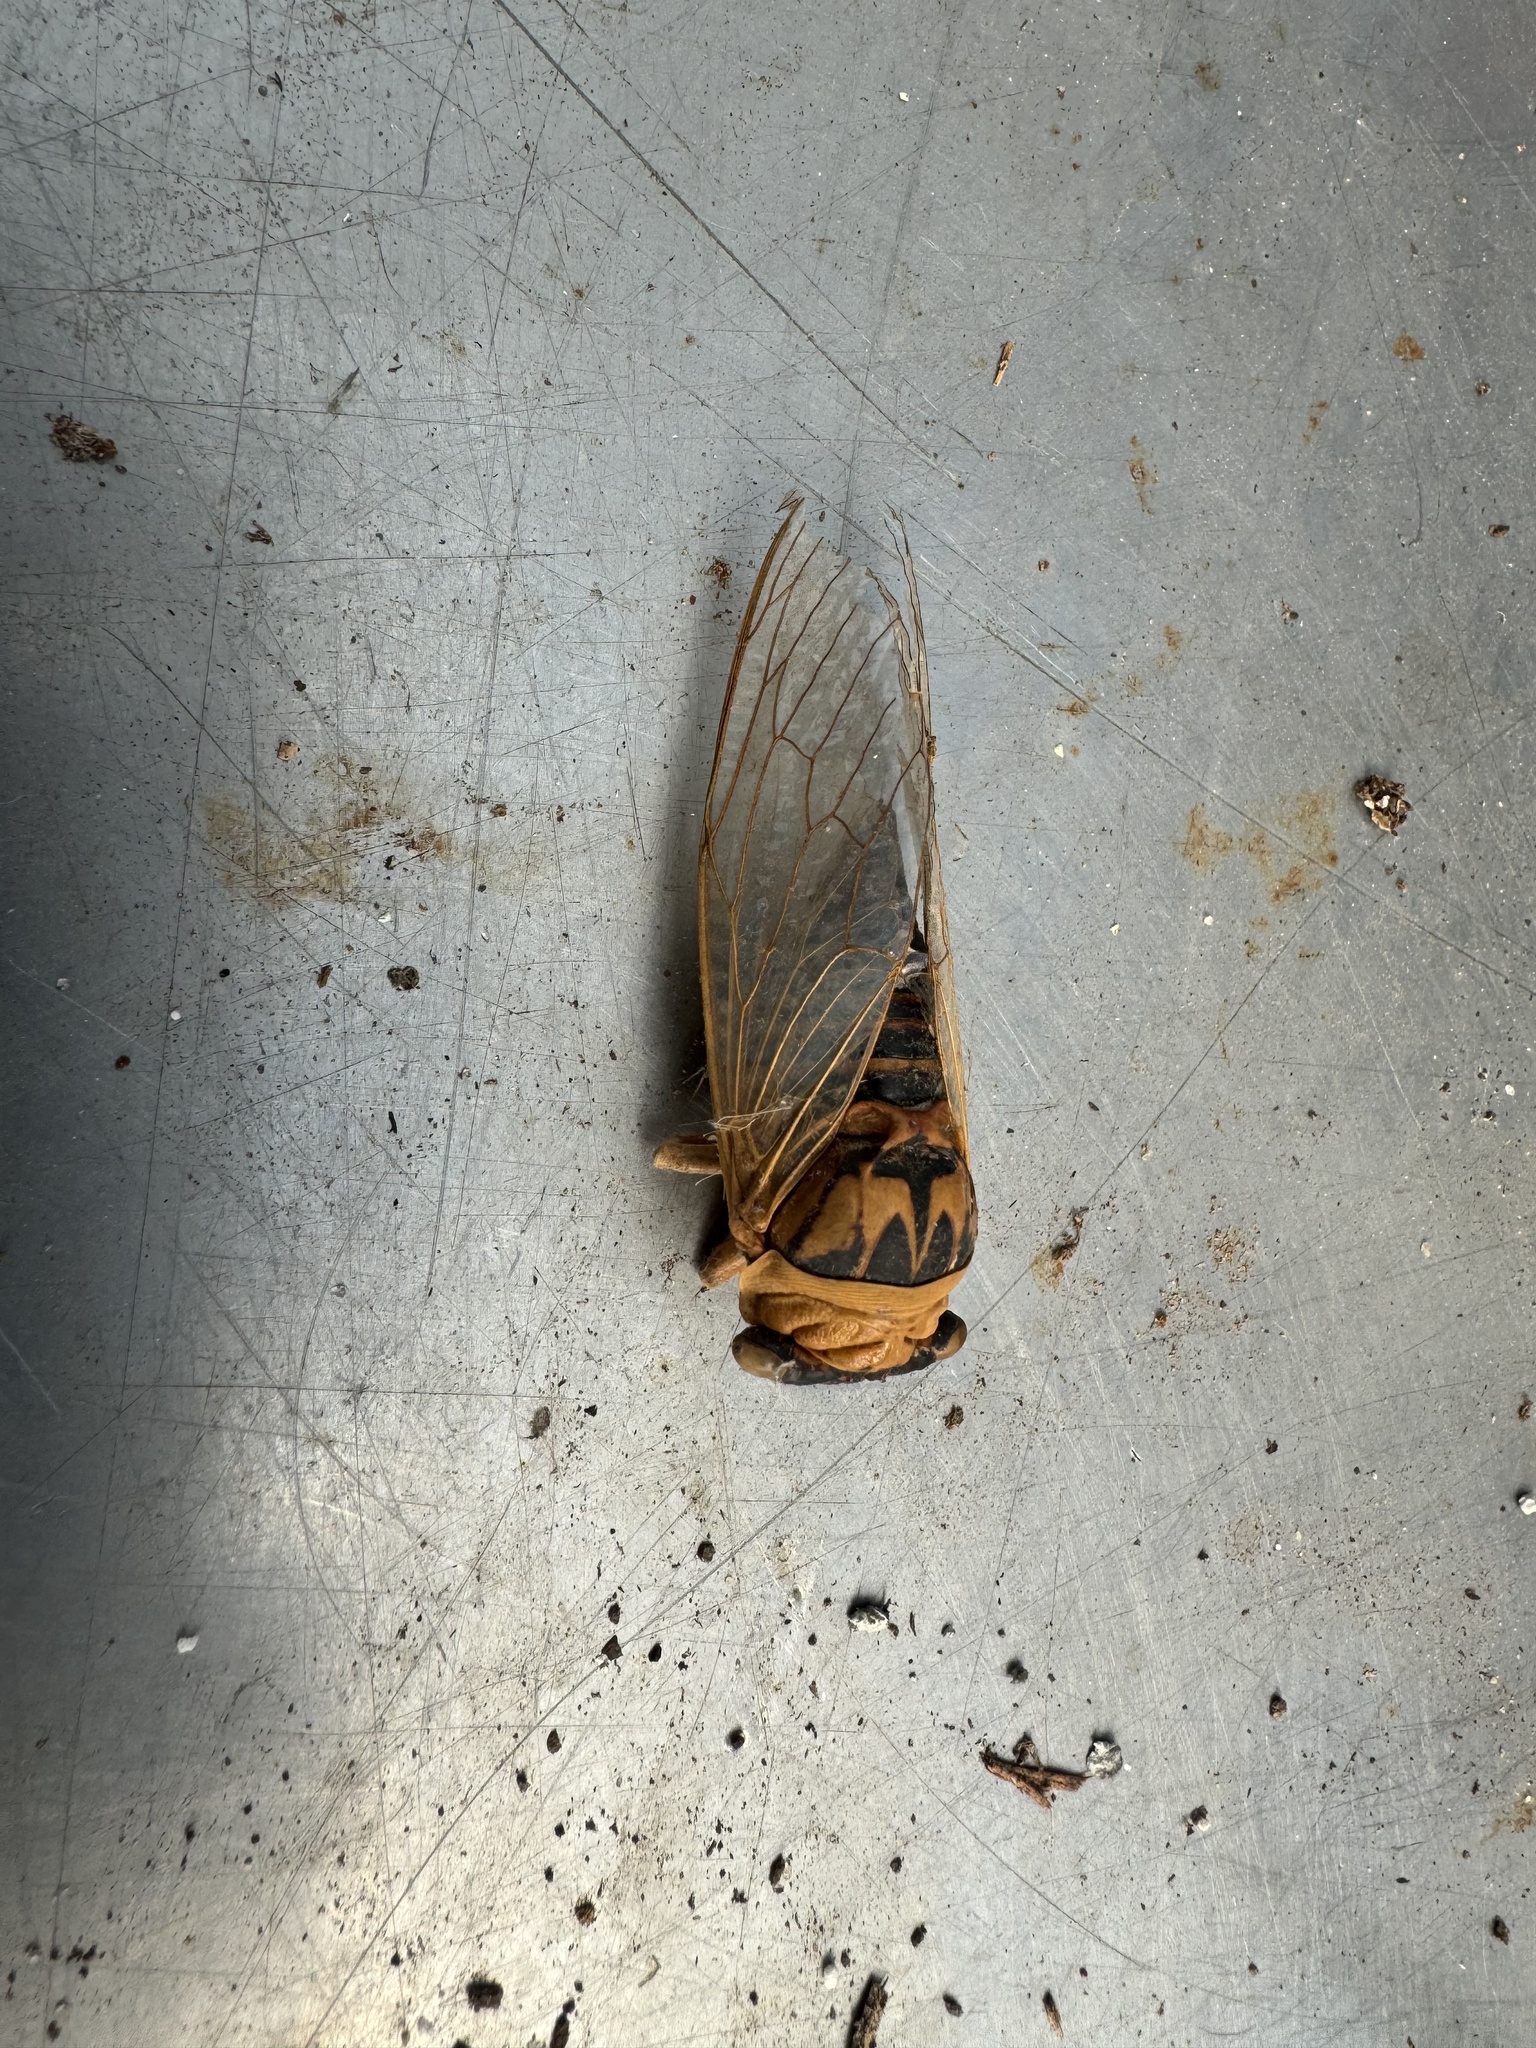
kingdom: Animalia
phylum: Arthropoda
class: Insecta
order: Hemiptera
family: Cicadidae
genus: Megatibicen
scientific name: Megatibicen pronotalis
